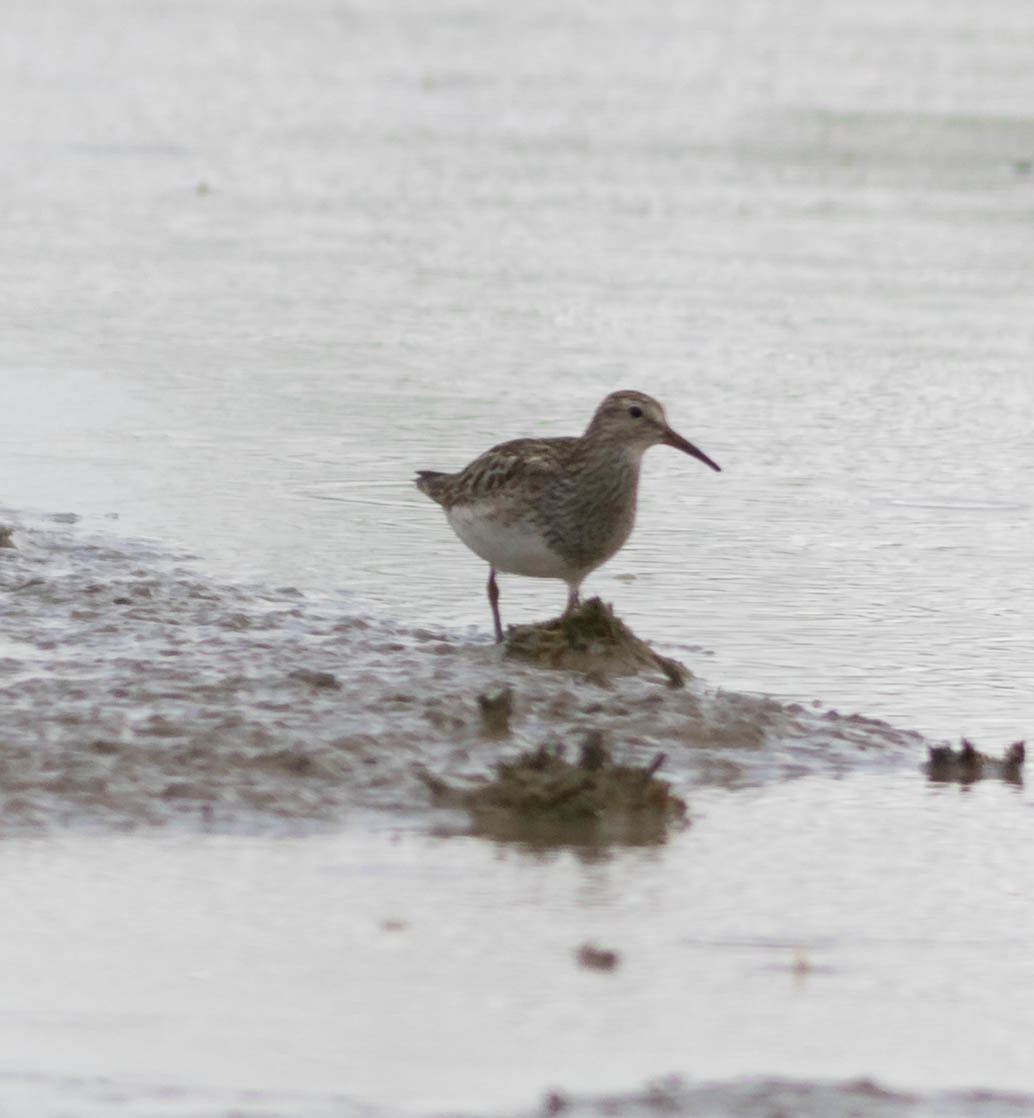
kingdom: Animalia
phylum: Chordata
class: Aves
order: Charadriiformes
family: Scolopacidae
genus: Calidris
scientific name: Calidris melanotos
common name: Pectoral sandpiper
